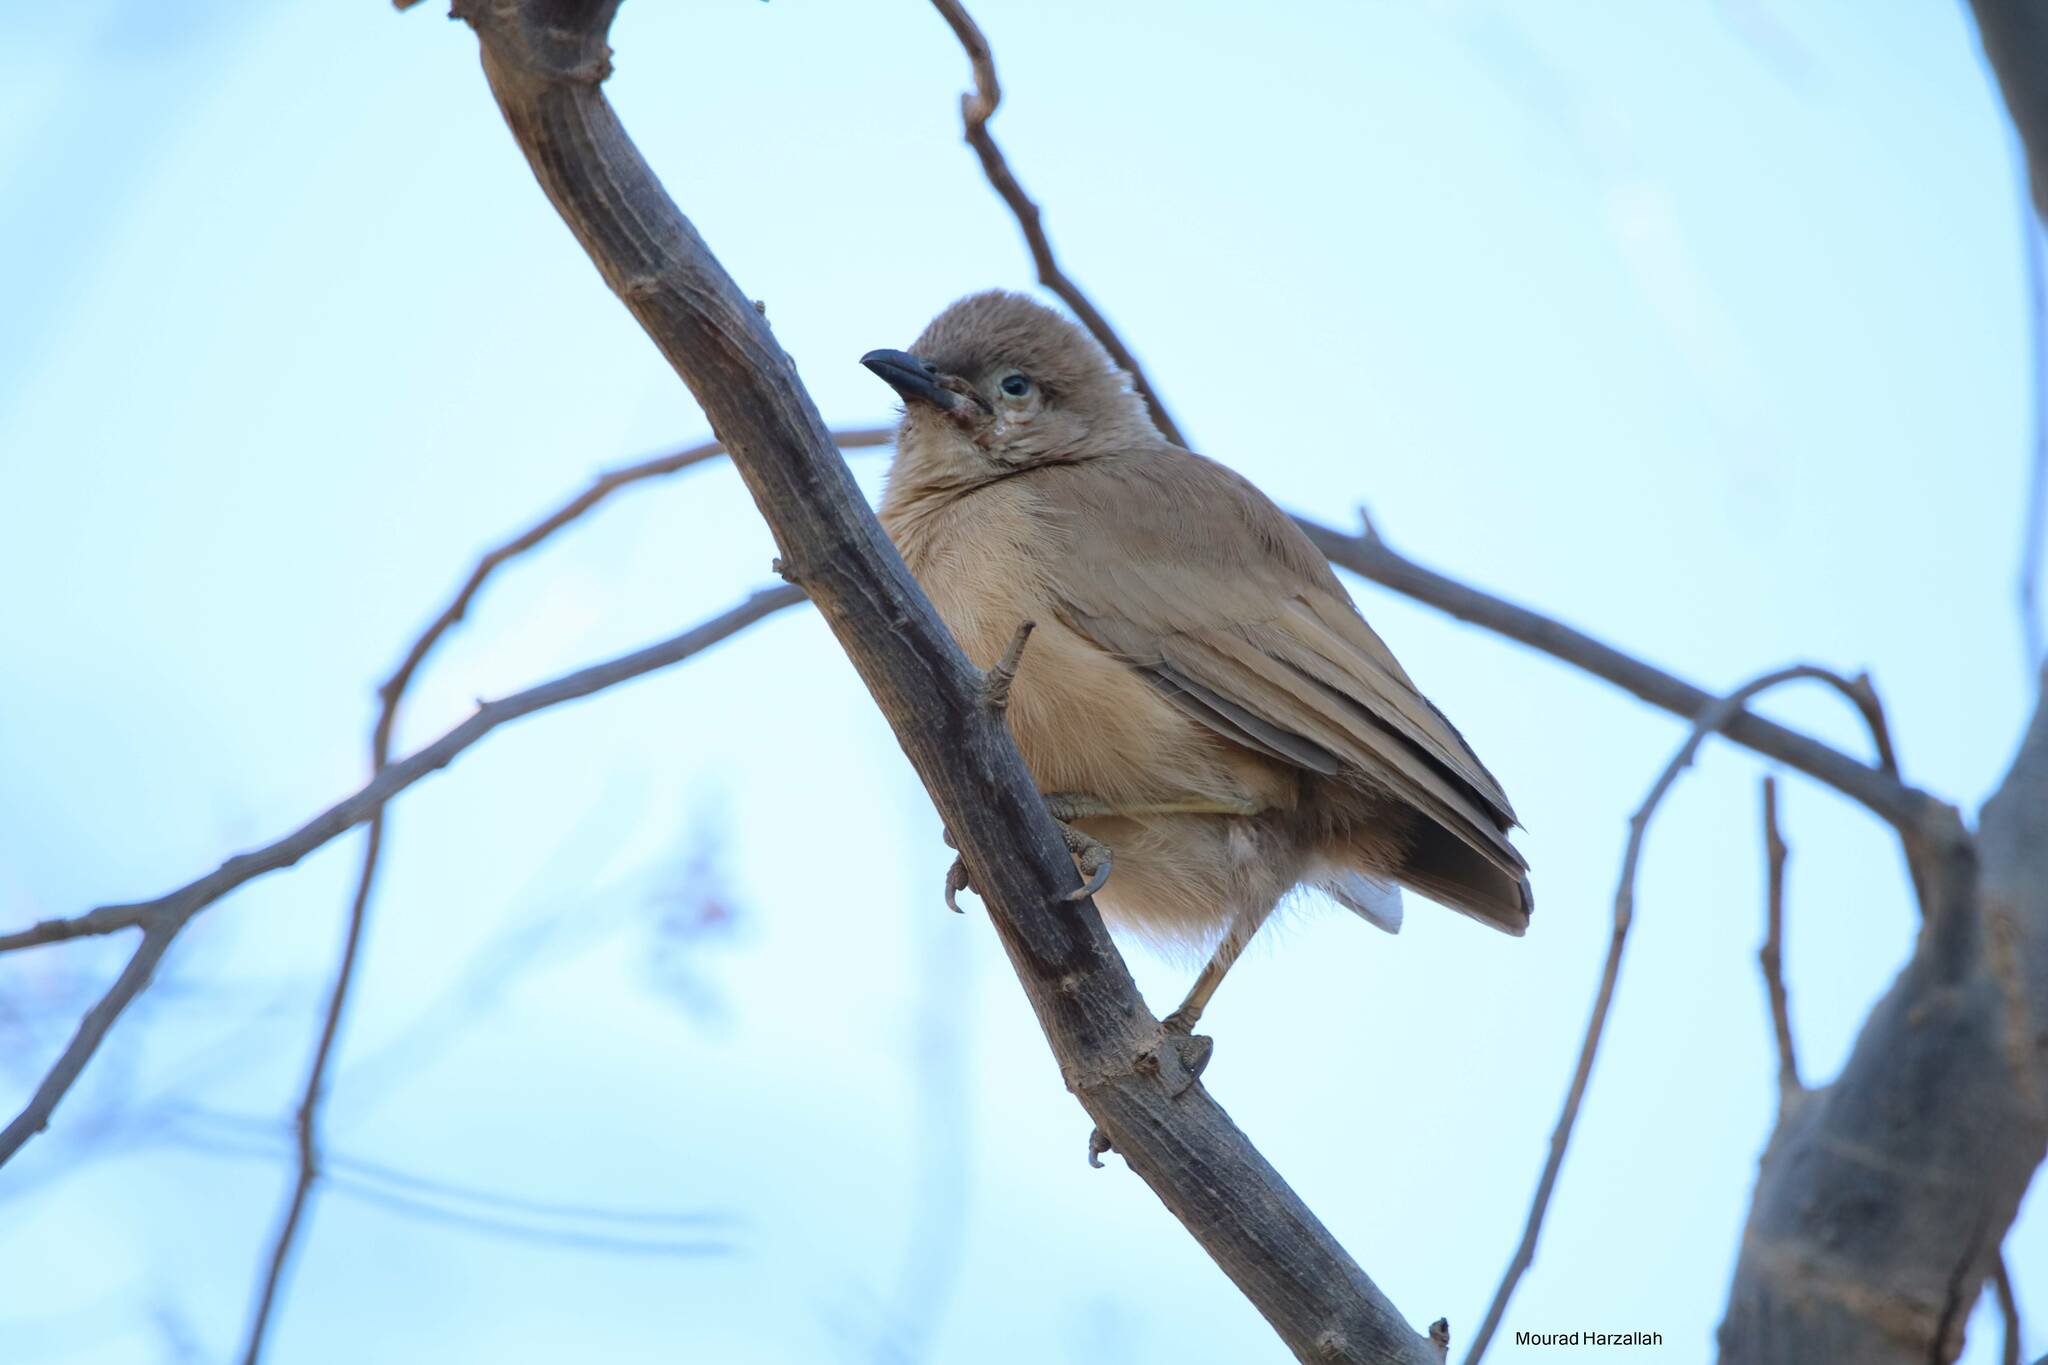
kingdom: Animalia
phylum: Chordata
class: Aves
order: Passeriformes
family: Leiothrichidae
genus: Turdoides
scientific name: Turdoides fulva
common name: Fulvous babbler
